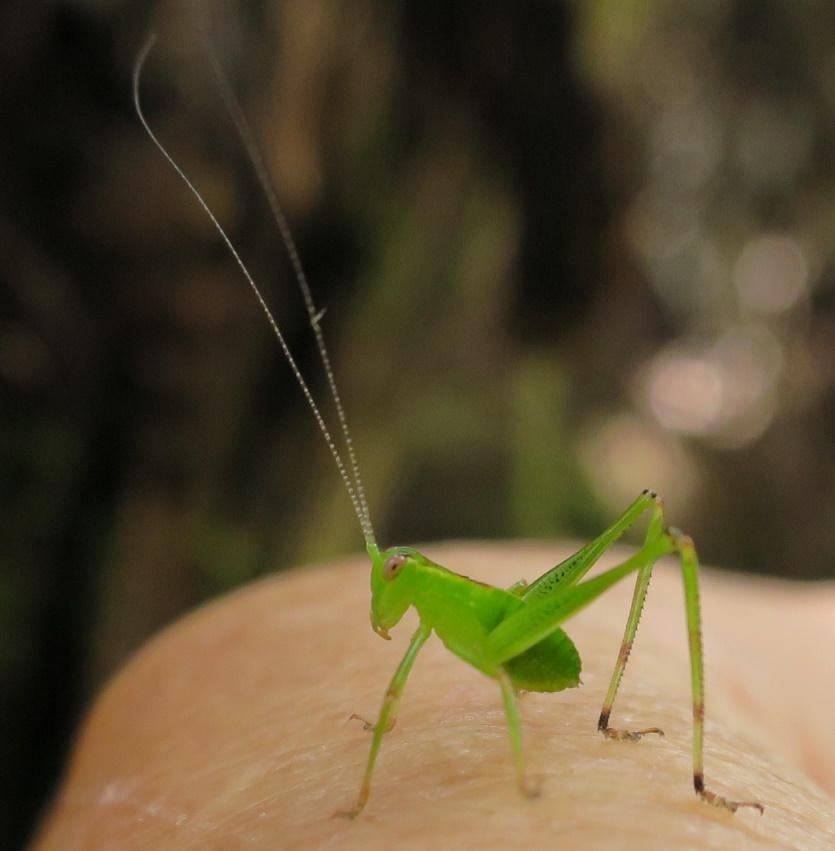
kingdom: Animalia
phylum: Arthropoda
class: Insecta
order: Orthoptera
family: Tettigoniidae
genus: Caedicia
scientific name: Caedicia simplex
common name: Common garden katydid
